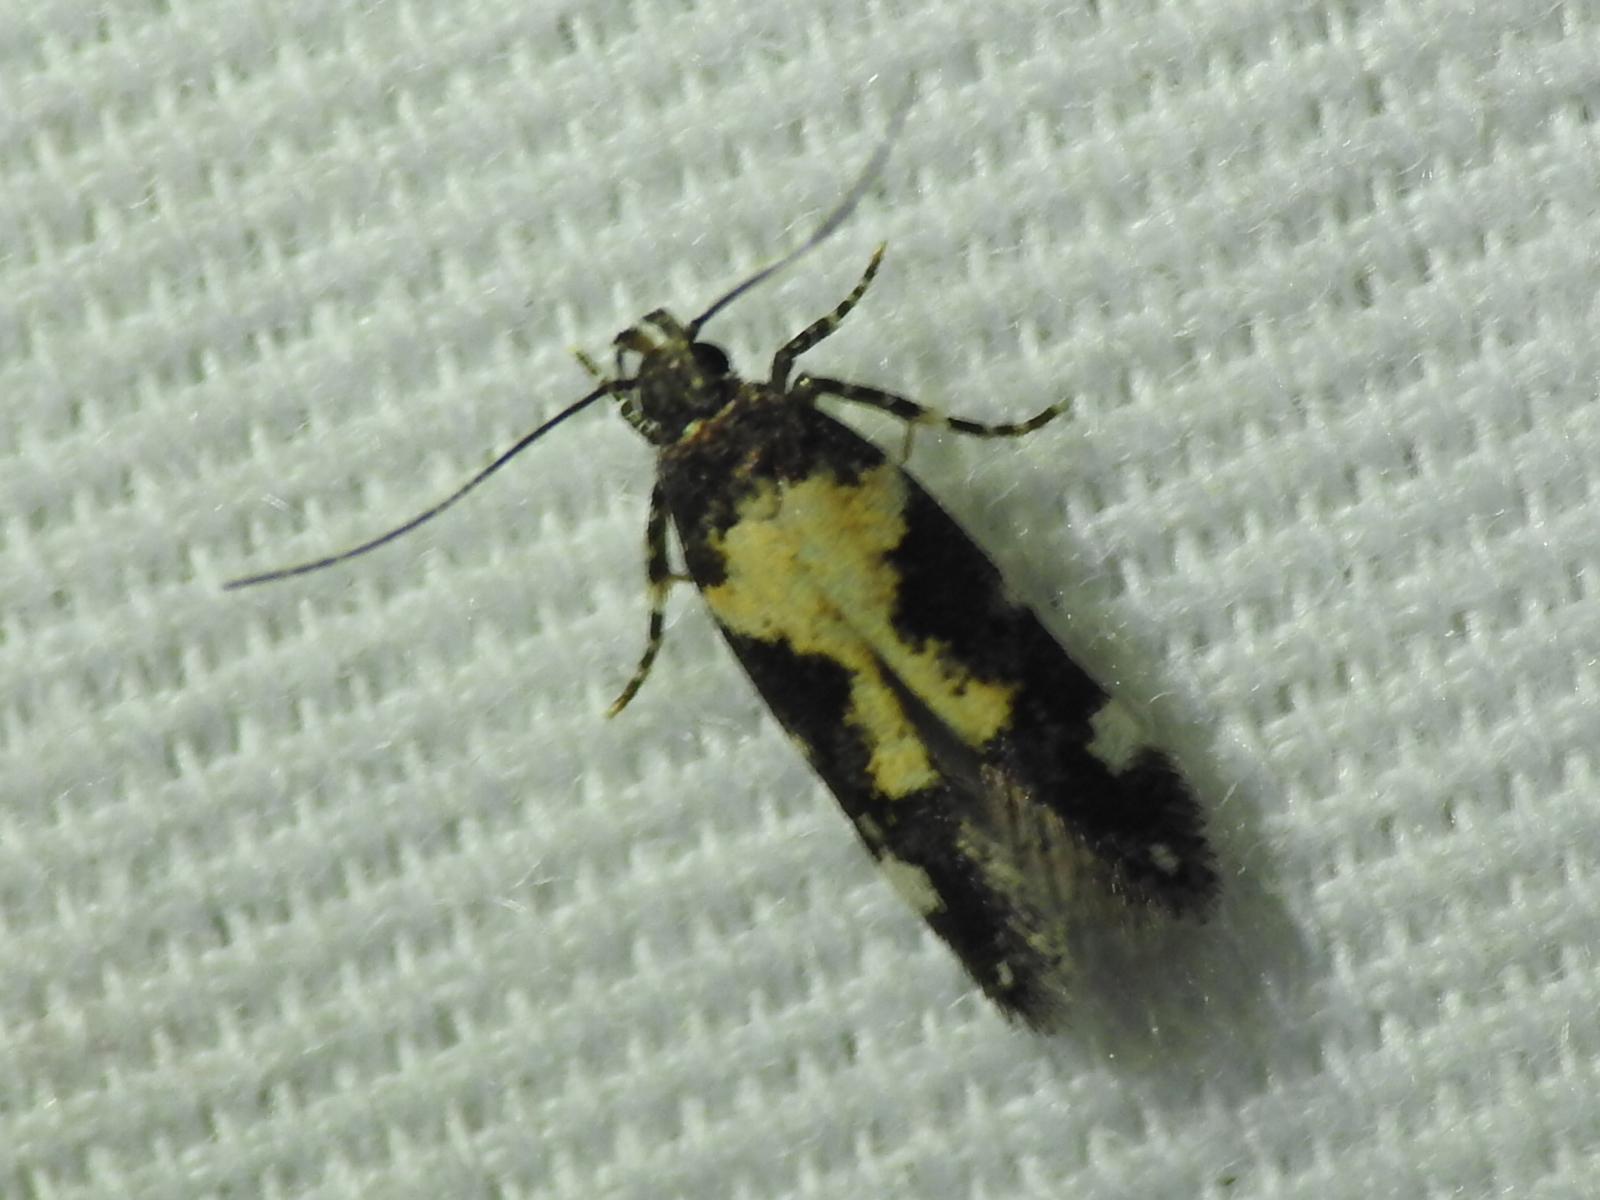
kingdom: Animalia
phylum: Arthropoda
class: Insecta
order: Lepidoptera
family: Gelechiidae
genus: Stegasta
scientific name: Stegasta bosqueella
